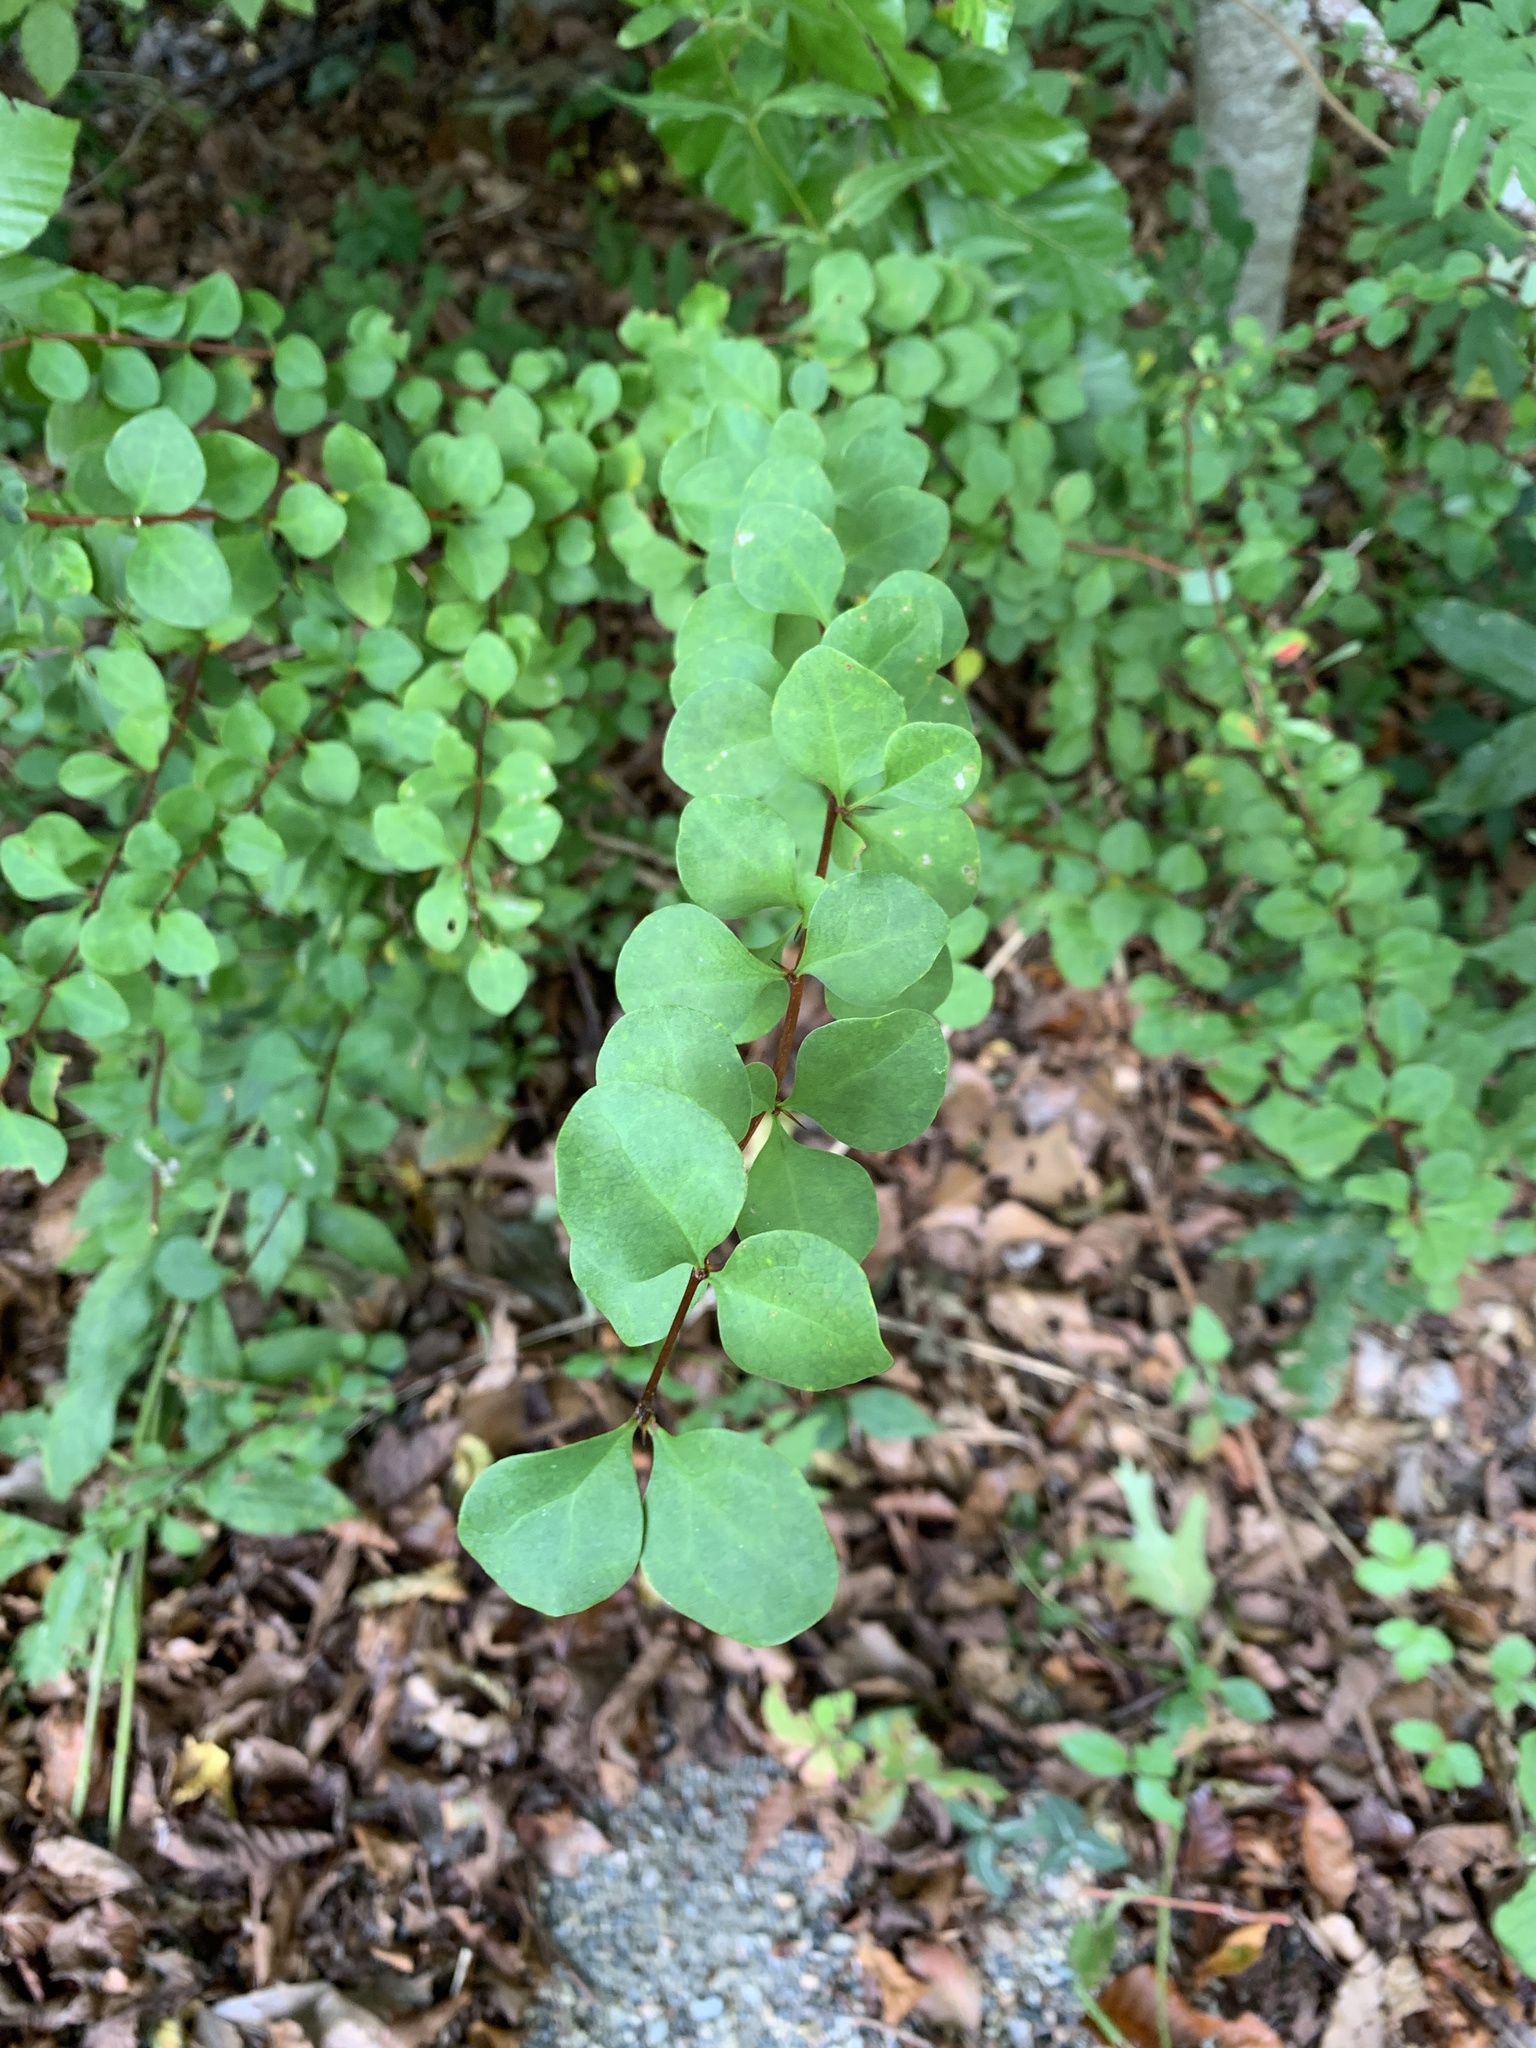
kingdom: Plantae
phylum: Tracheophyta
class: Magnoliopsida
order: Ranunculales
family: Berberidaceae
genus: Berberis
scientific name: Berberis thunbergii
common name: Japanese barberry
